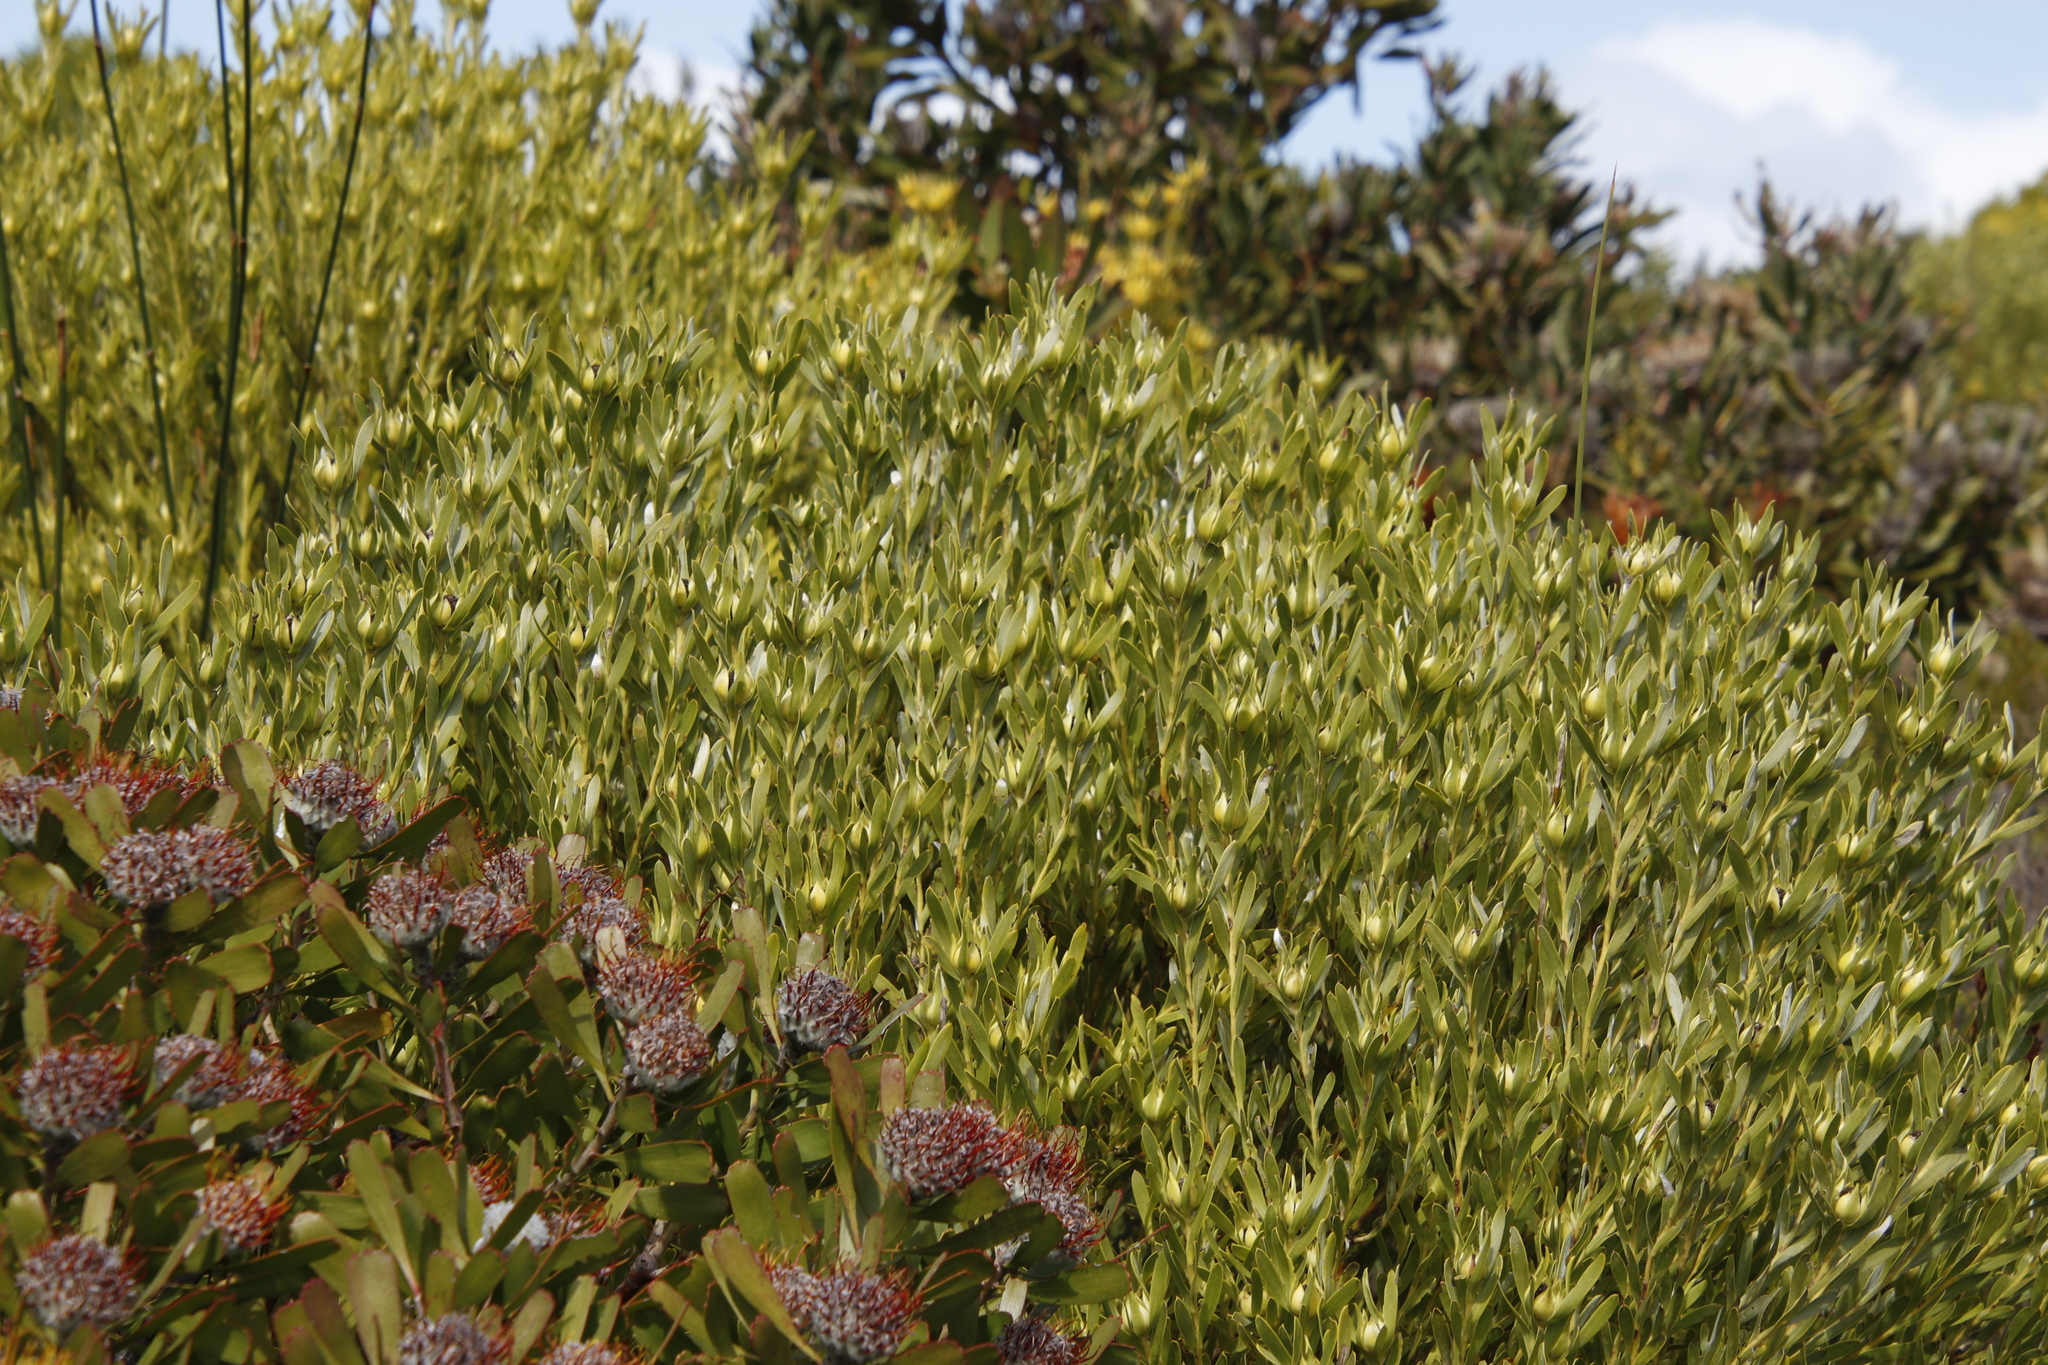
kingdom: Plantae
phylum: Tracheophyta
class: Magnoliopsida
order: Proteales
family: Proteaceae
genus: Leucadendron
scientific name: Leucadendron meridianum
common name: Limestone conebush
